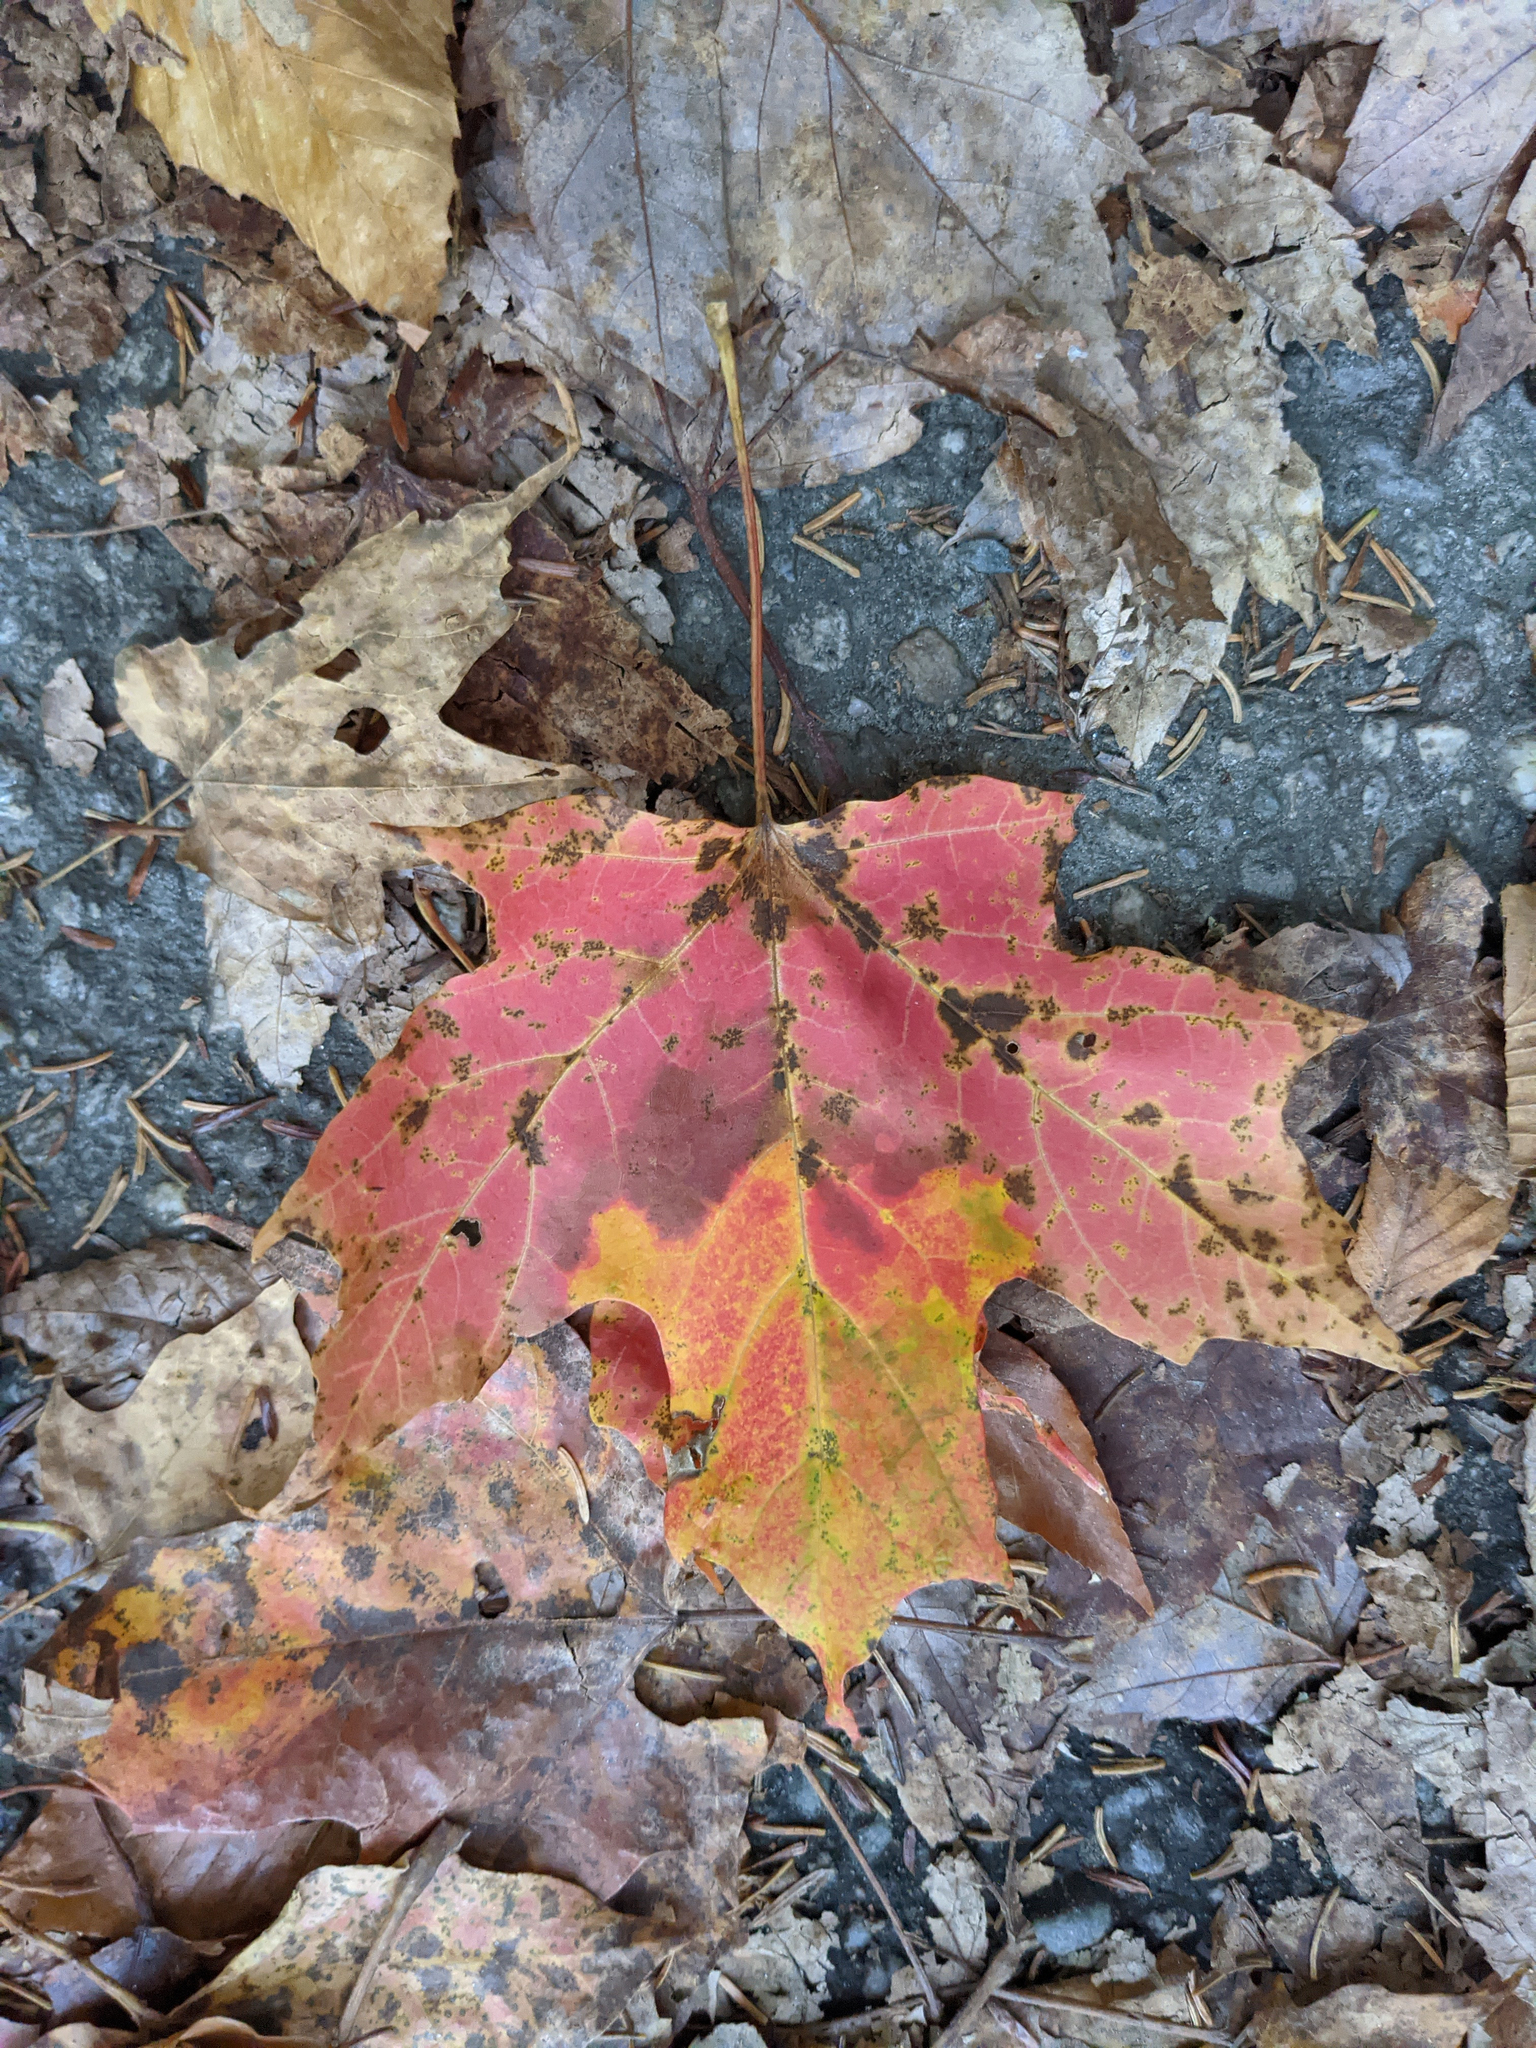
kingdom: Plantae
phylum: Tracheophyta
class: Magnoliopsida
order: Sapindales
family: Sapindaceae
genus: Acer
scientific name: Acer saccharum
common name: Sugar maple
